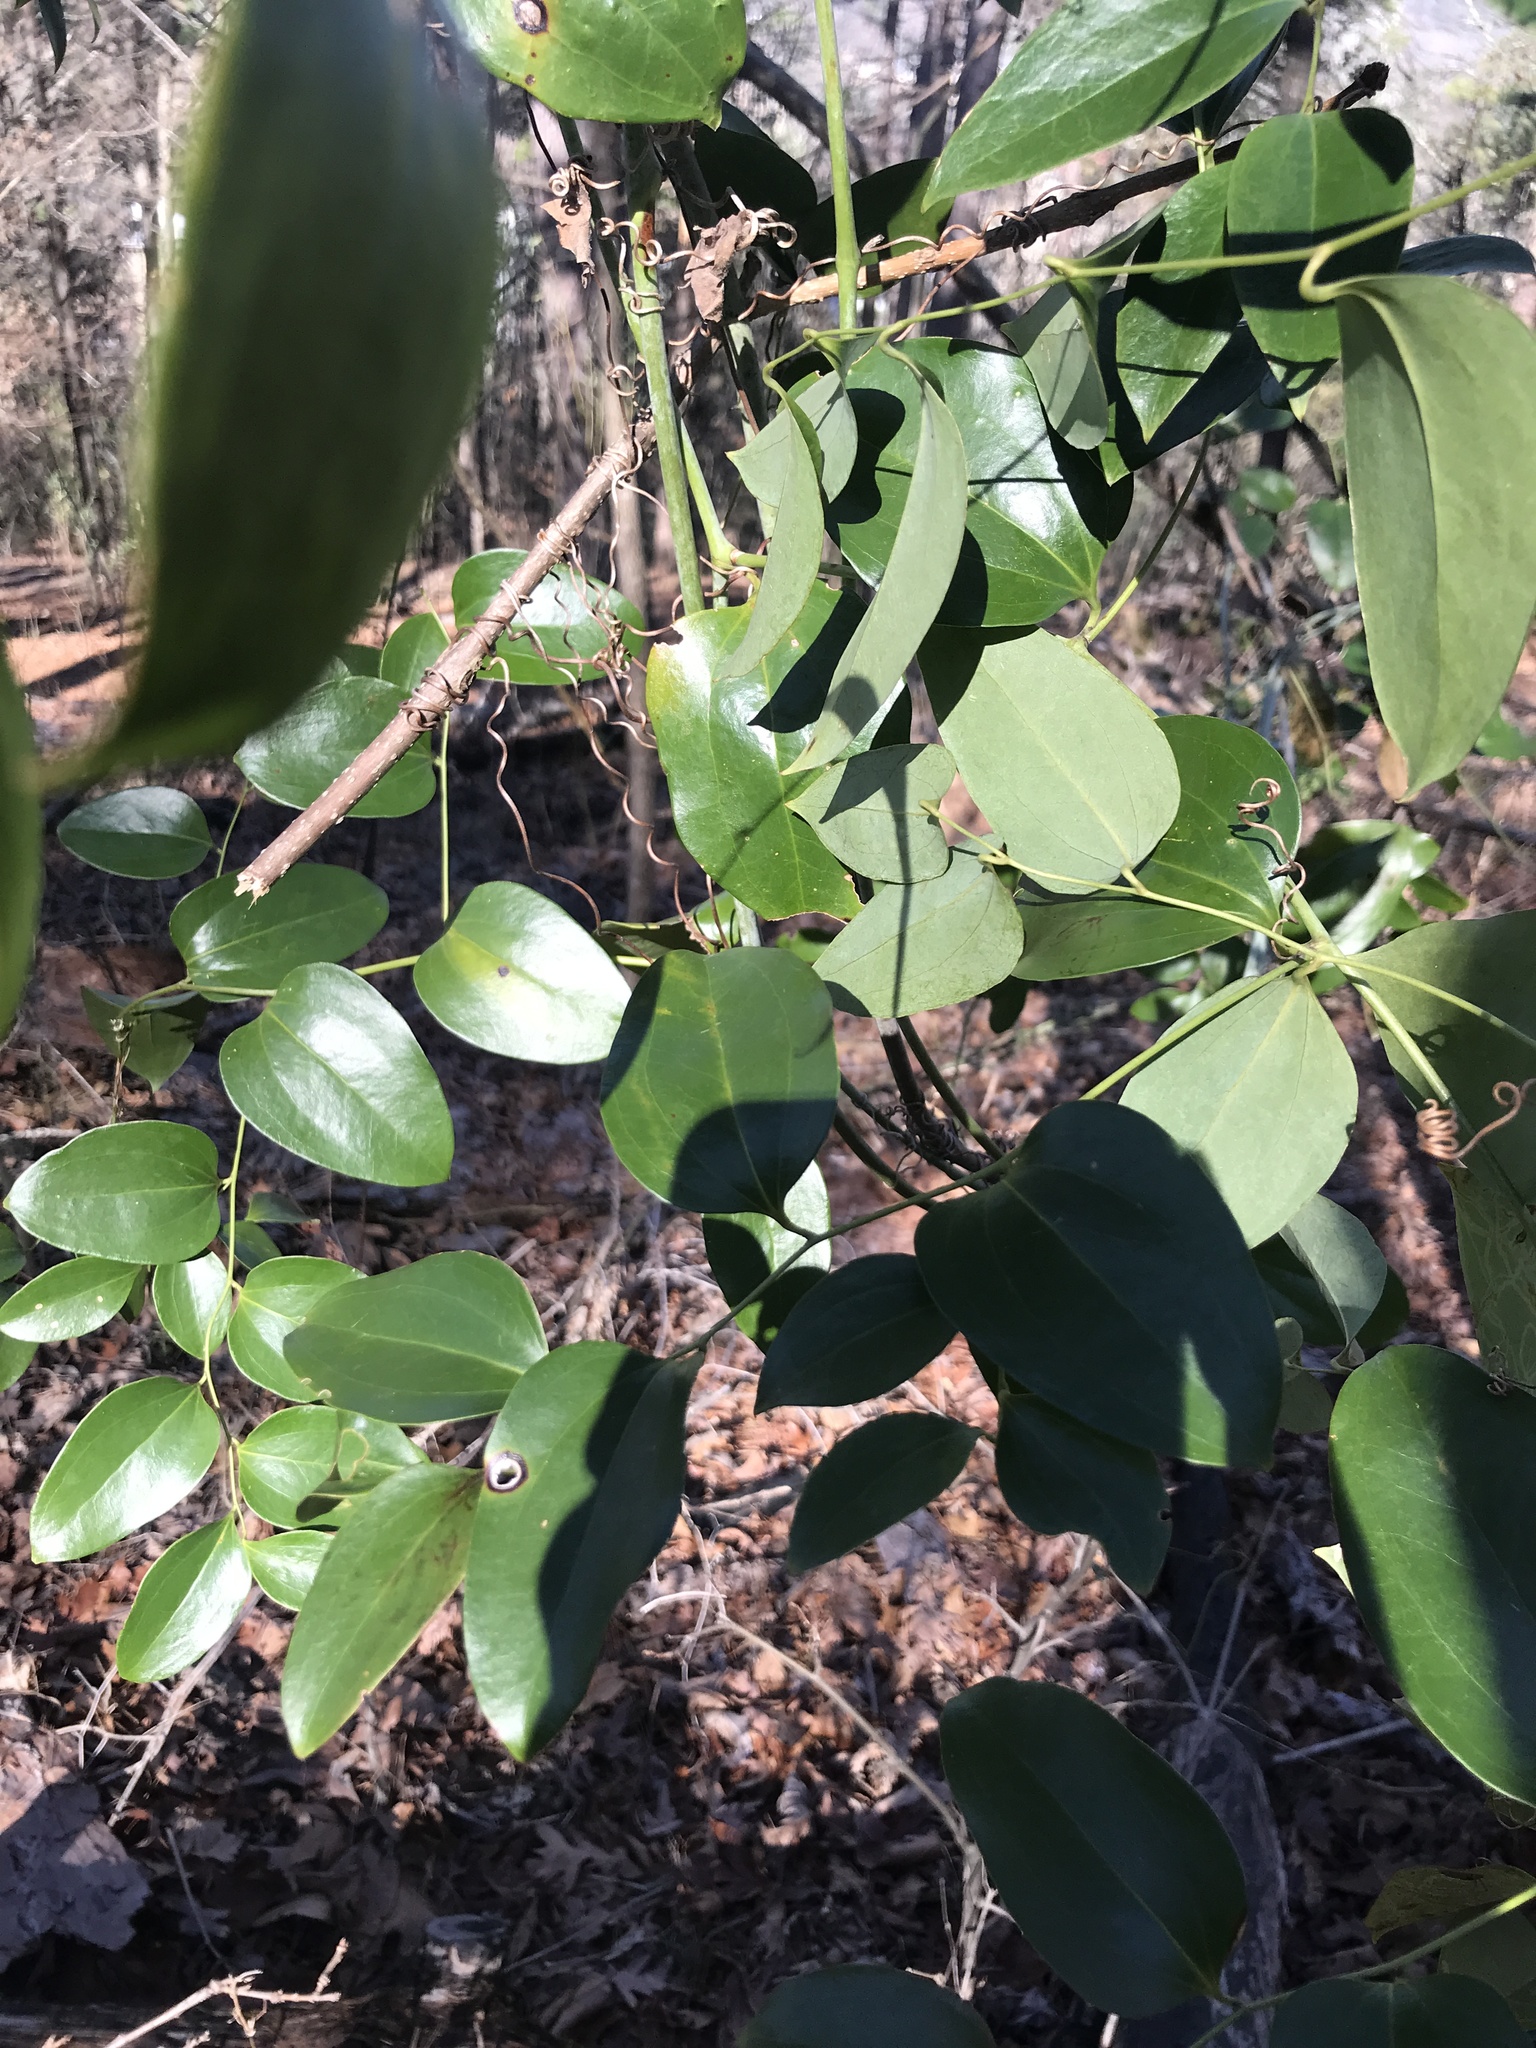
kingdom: Plantae
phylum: Tracheophyta
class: Liliopsida
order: Liliales
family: Smilacaceae
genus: Smilax
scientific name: Smilax maritima
